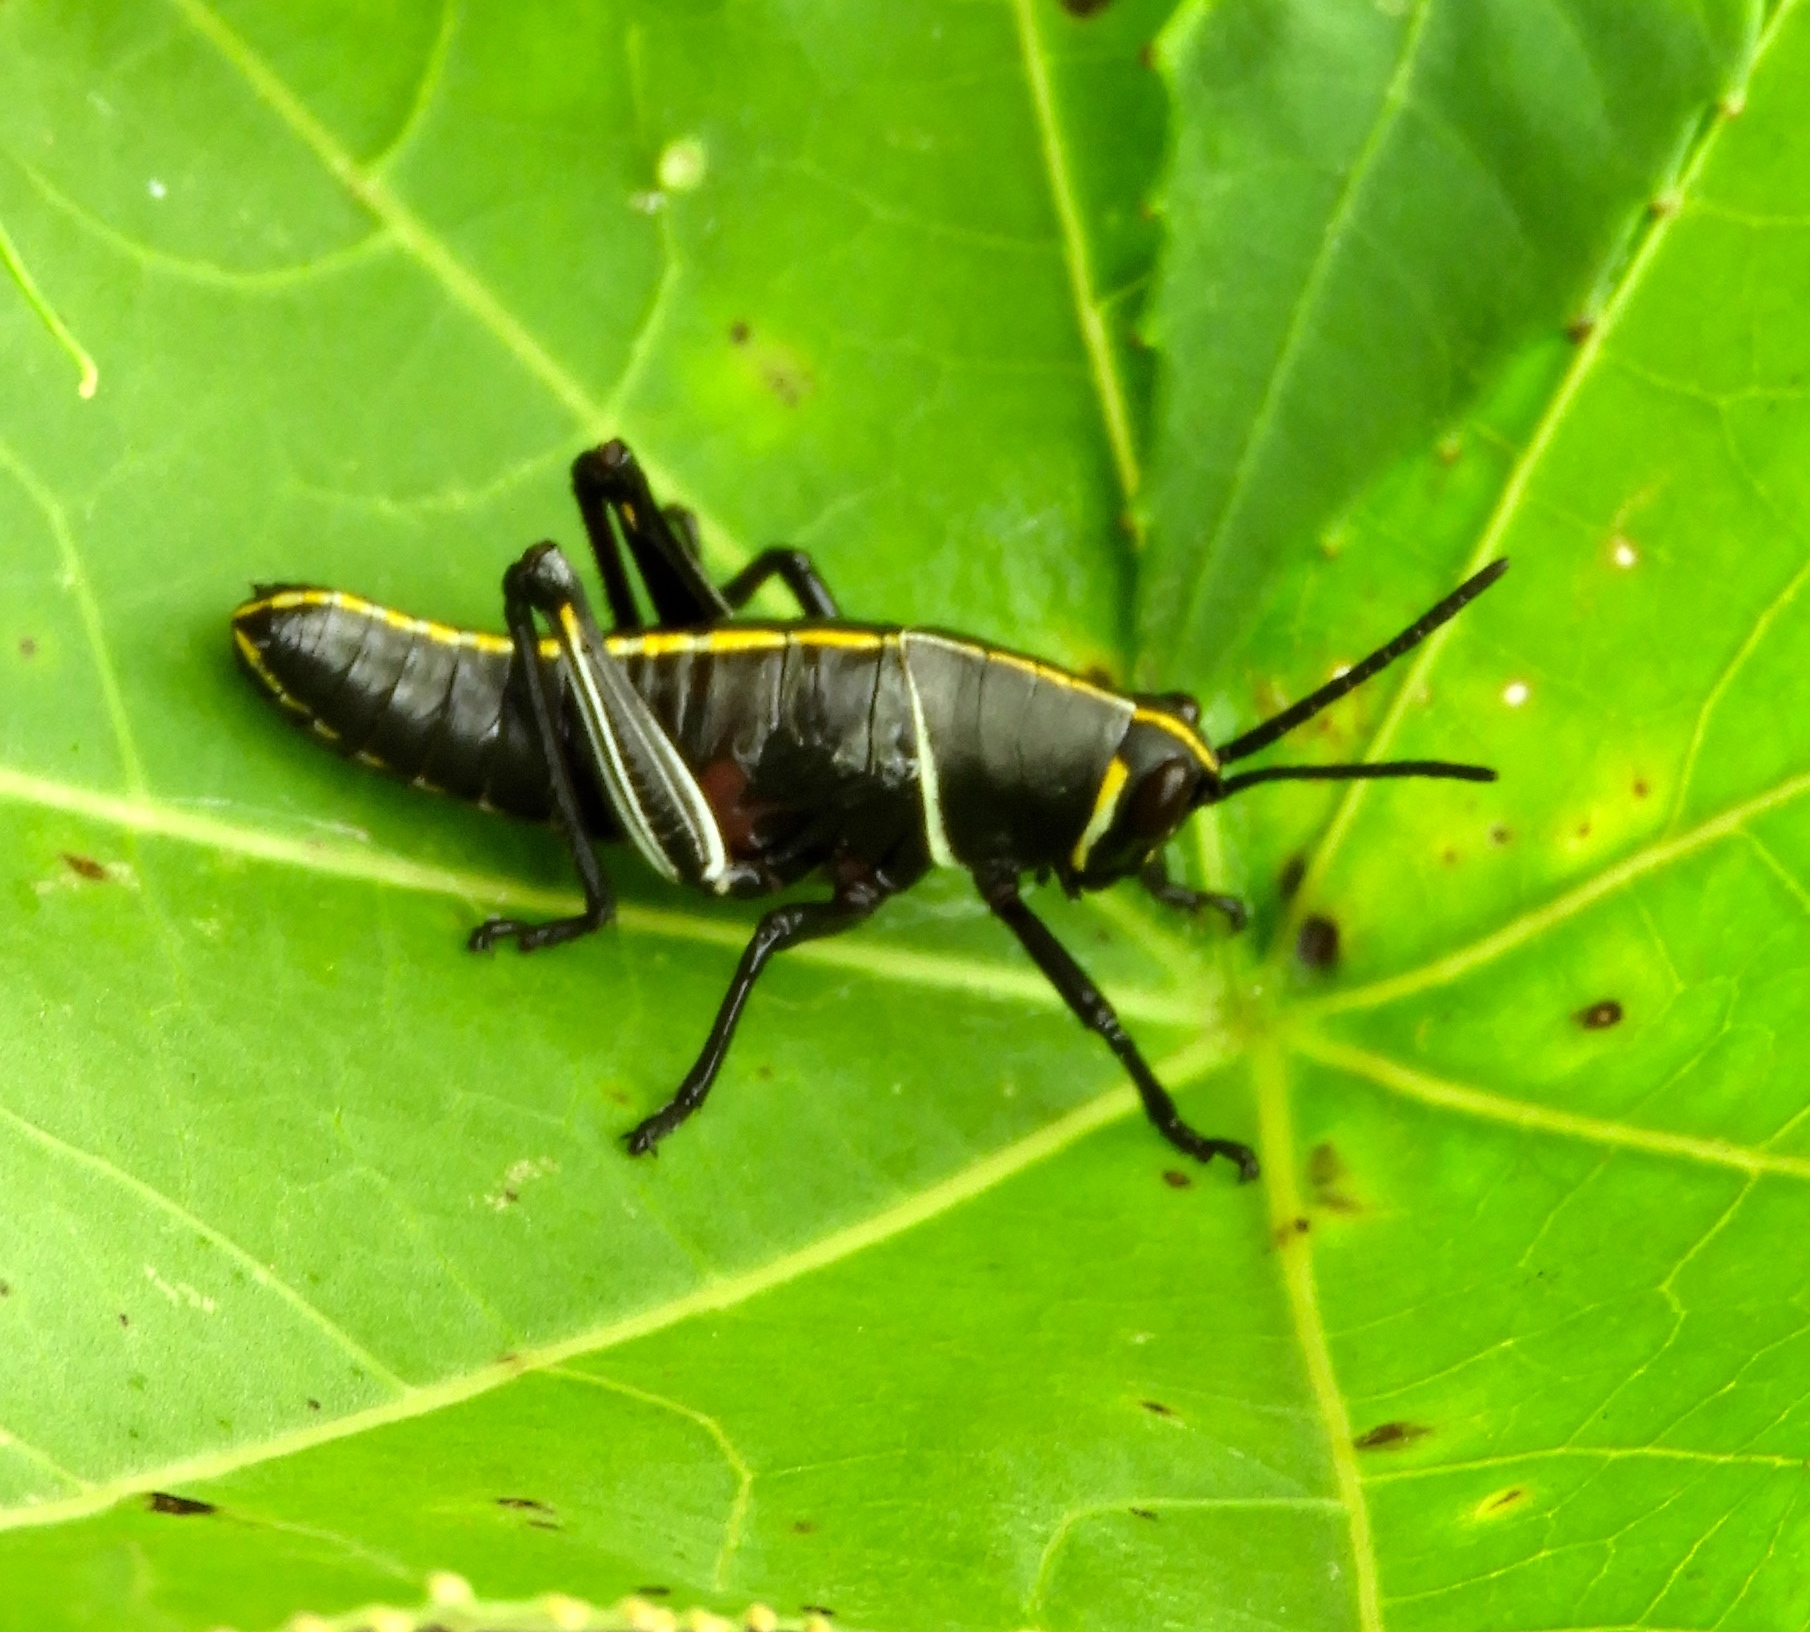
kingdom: Animalia
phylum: Arthropoda
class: Insecta
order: Orthoptera
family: Romaleidae
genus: Romalea
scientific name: Romalea
